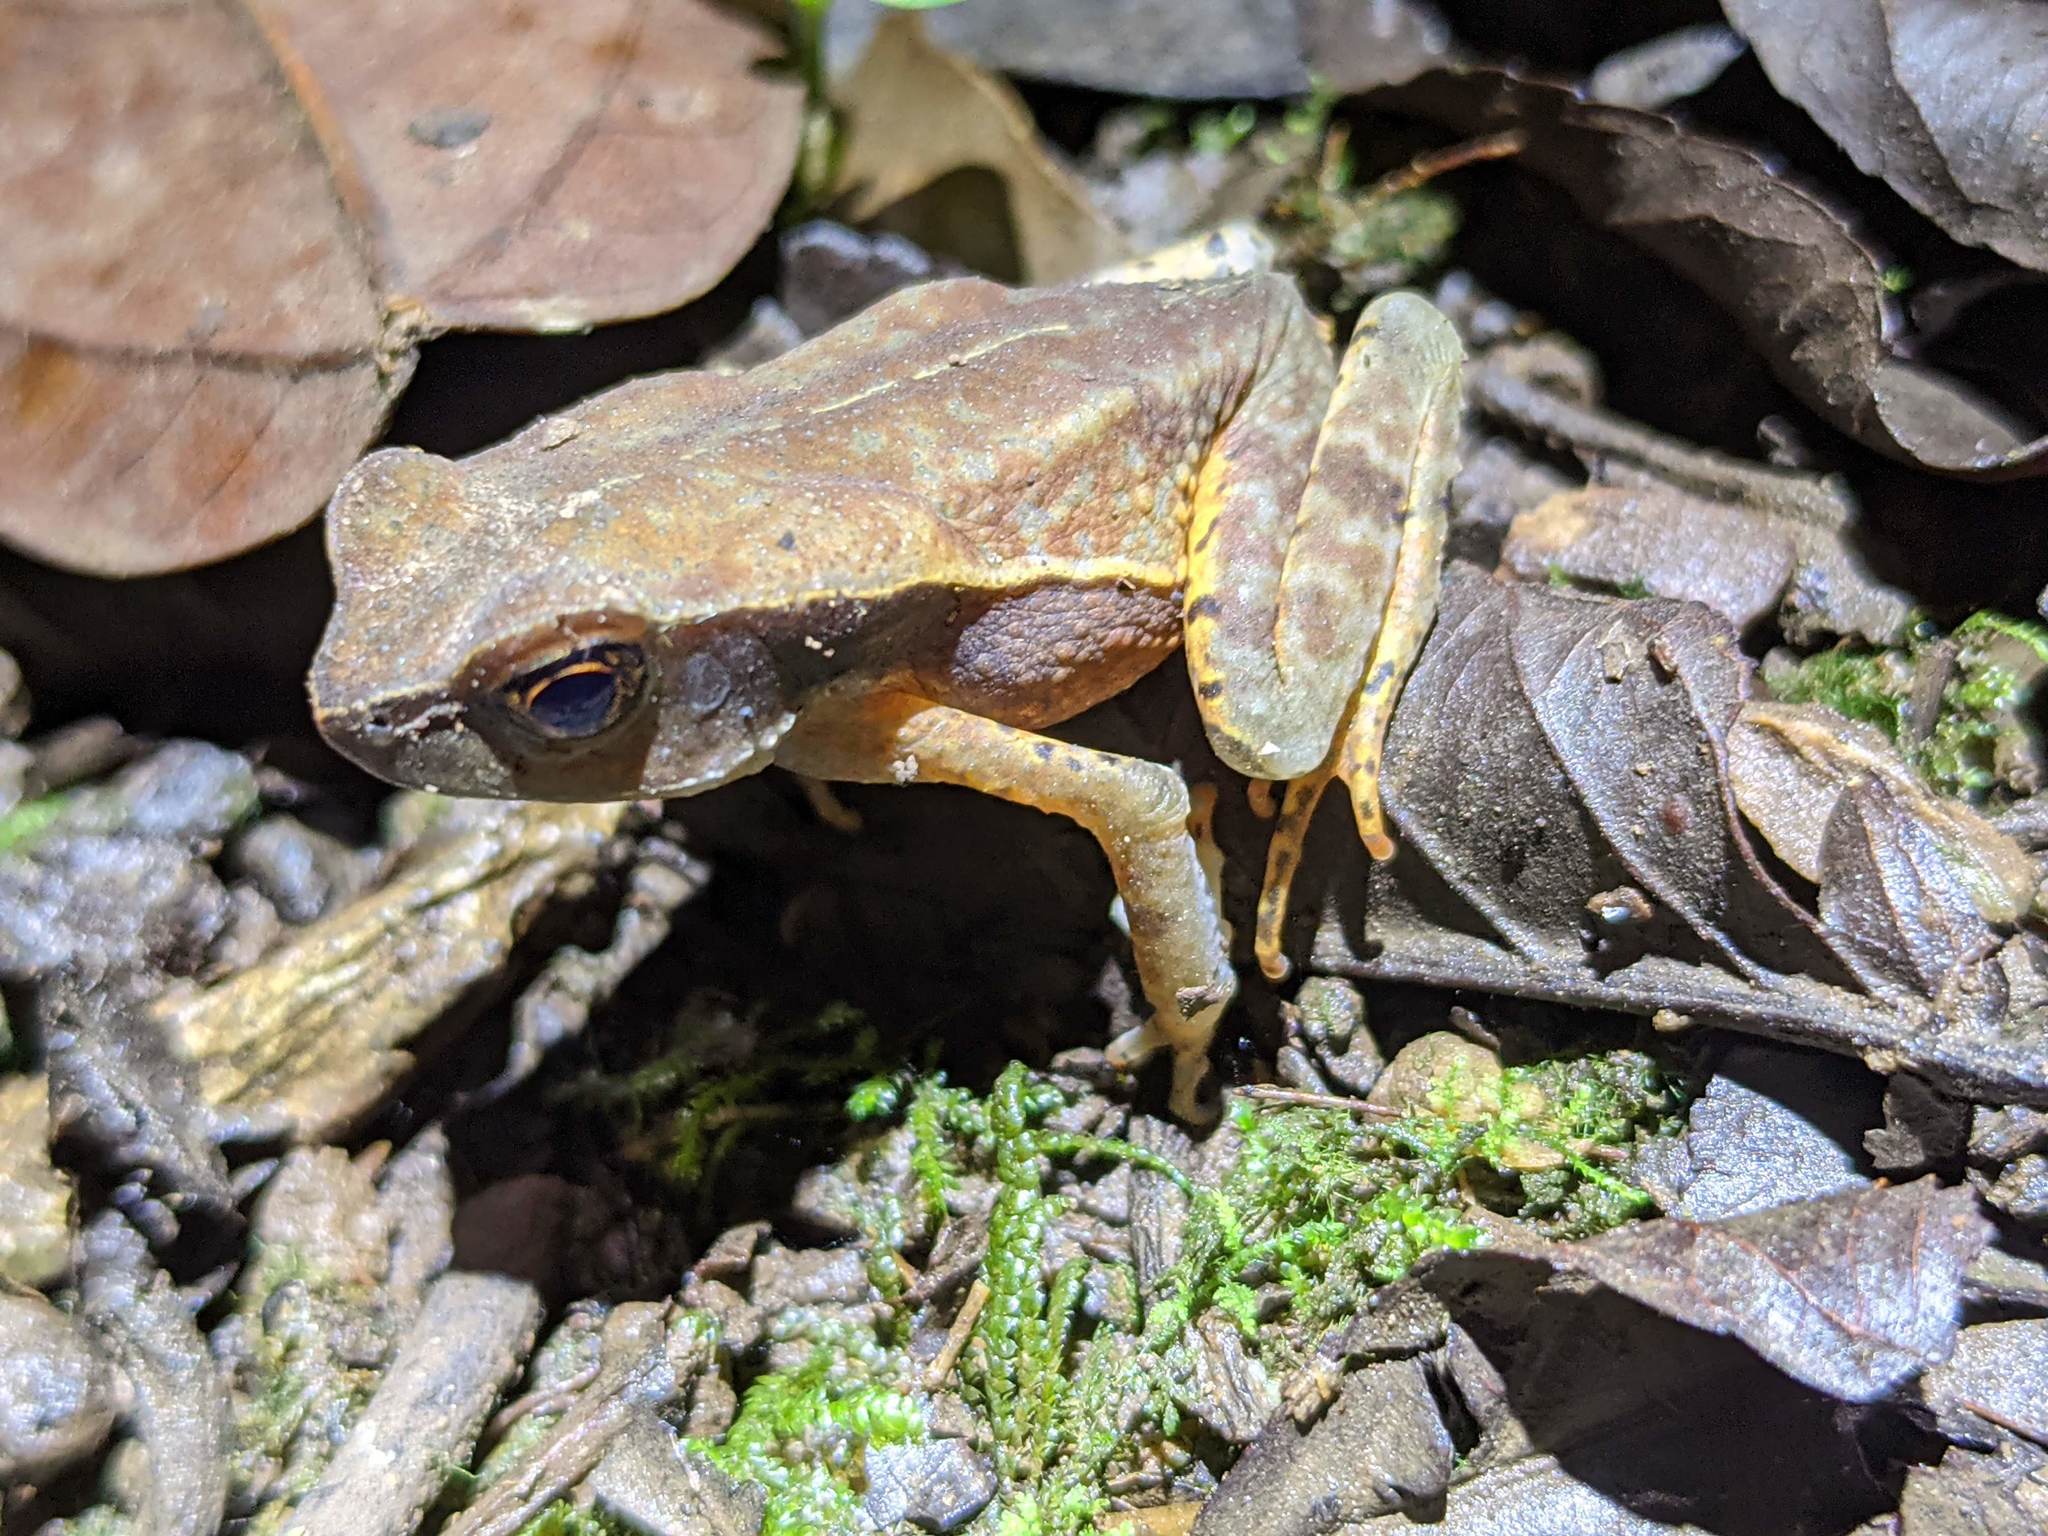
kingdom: Animalia
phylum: Chordata
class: Amphibia
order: Anura
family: Bufonidae
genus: Rhaebo
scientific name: Rhaebo haematiticus
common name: Truando toad
